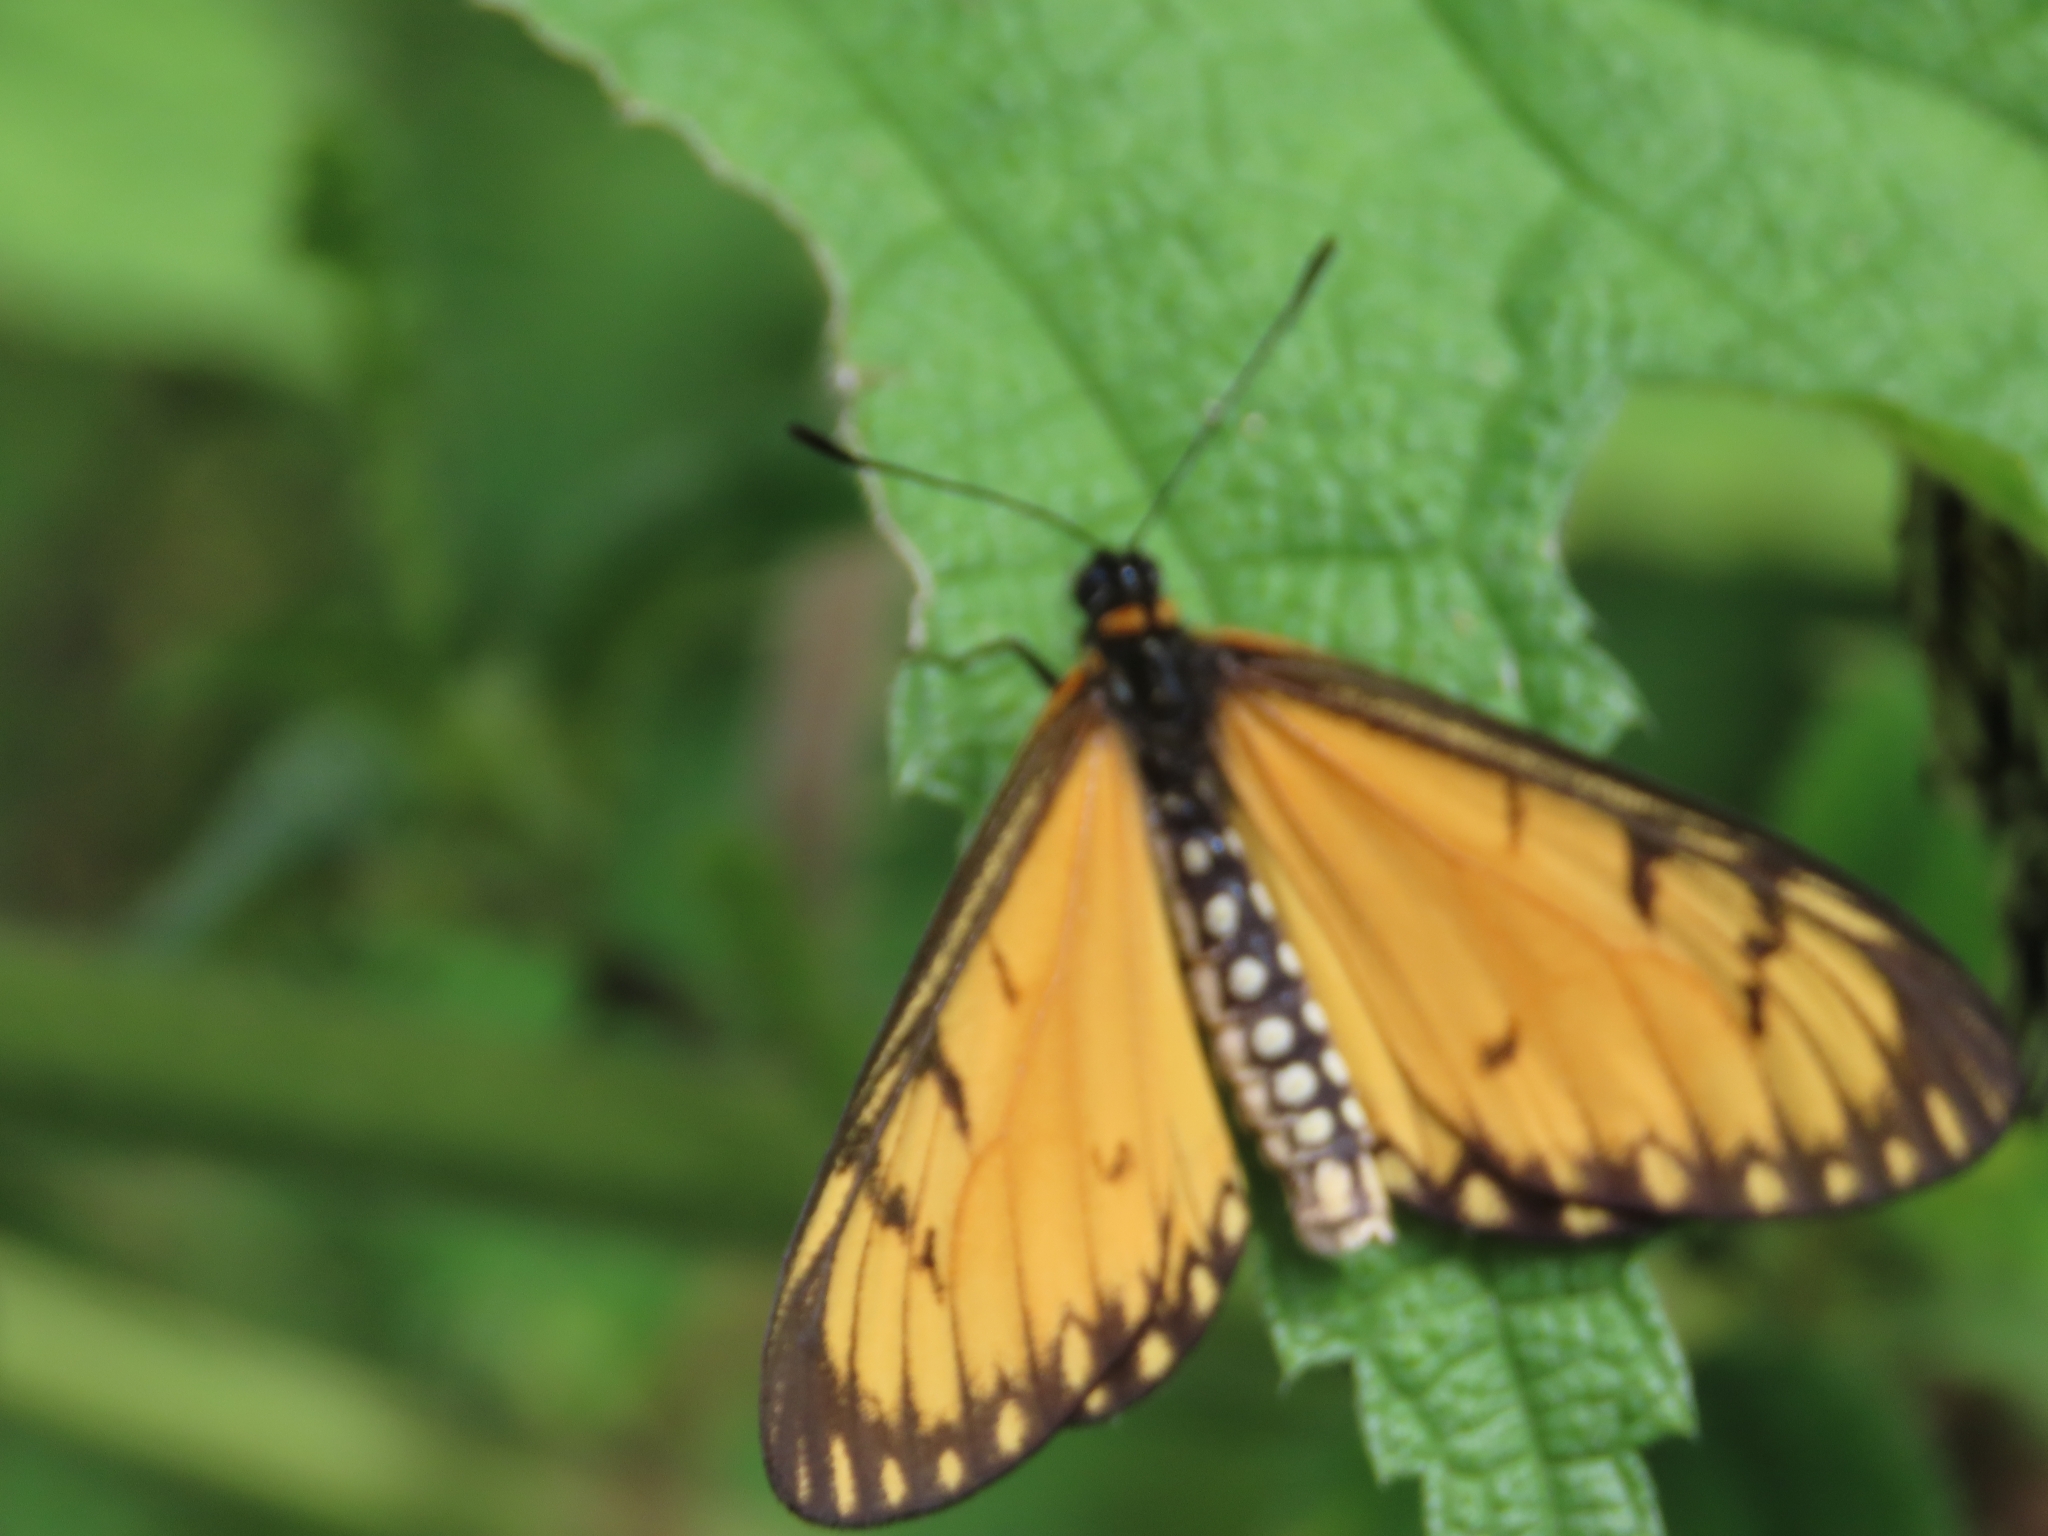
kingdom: Animalia
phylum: Arthropoda
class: Insecta
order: Lepidoptera
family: Nymphalidae
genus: Acraea
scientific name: Acraea Telchinia issoria
